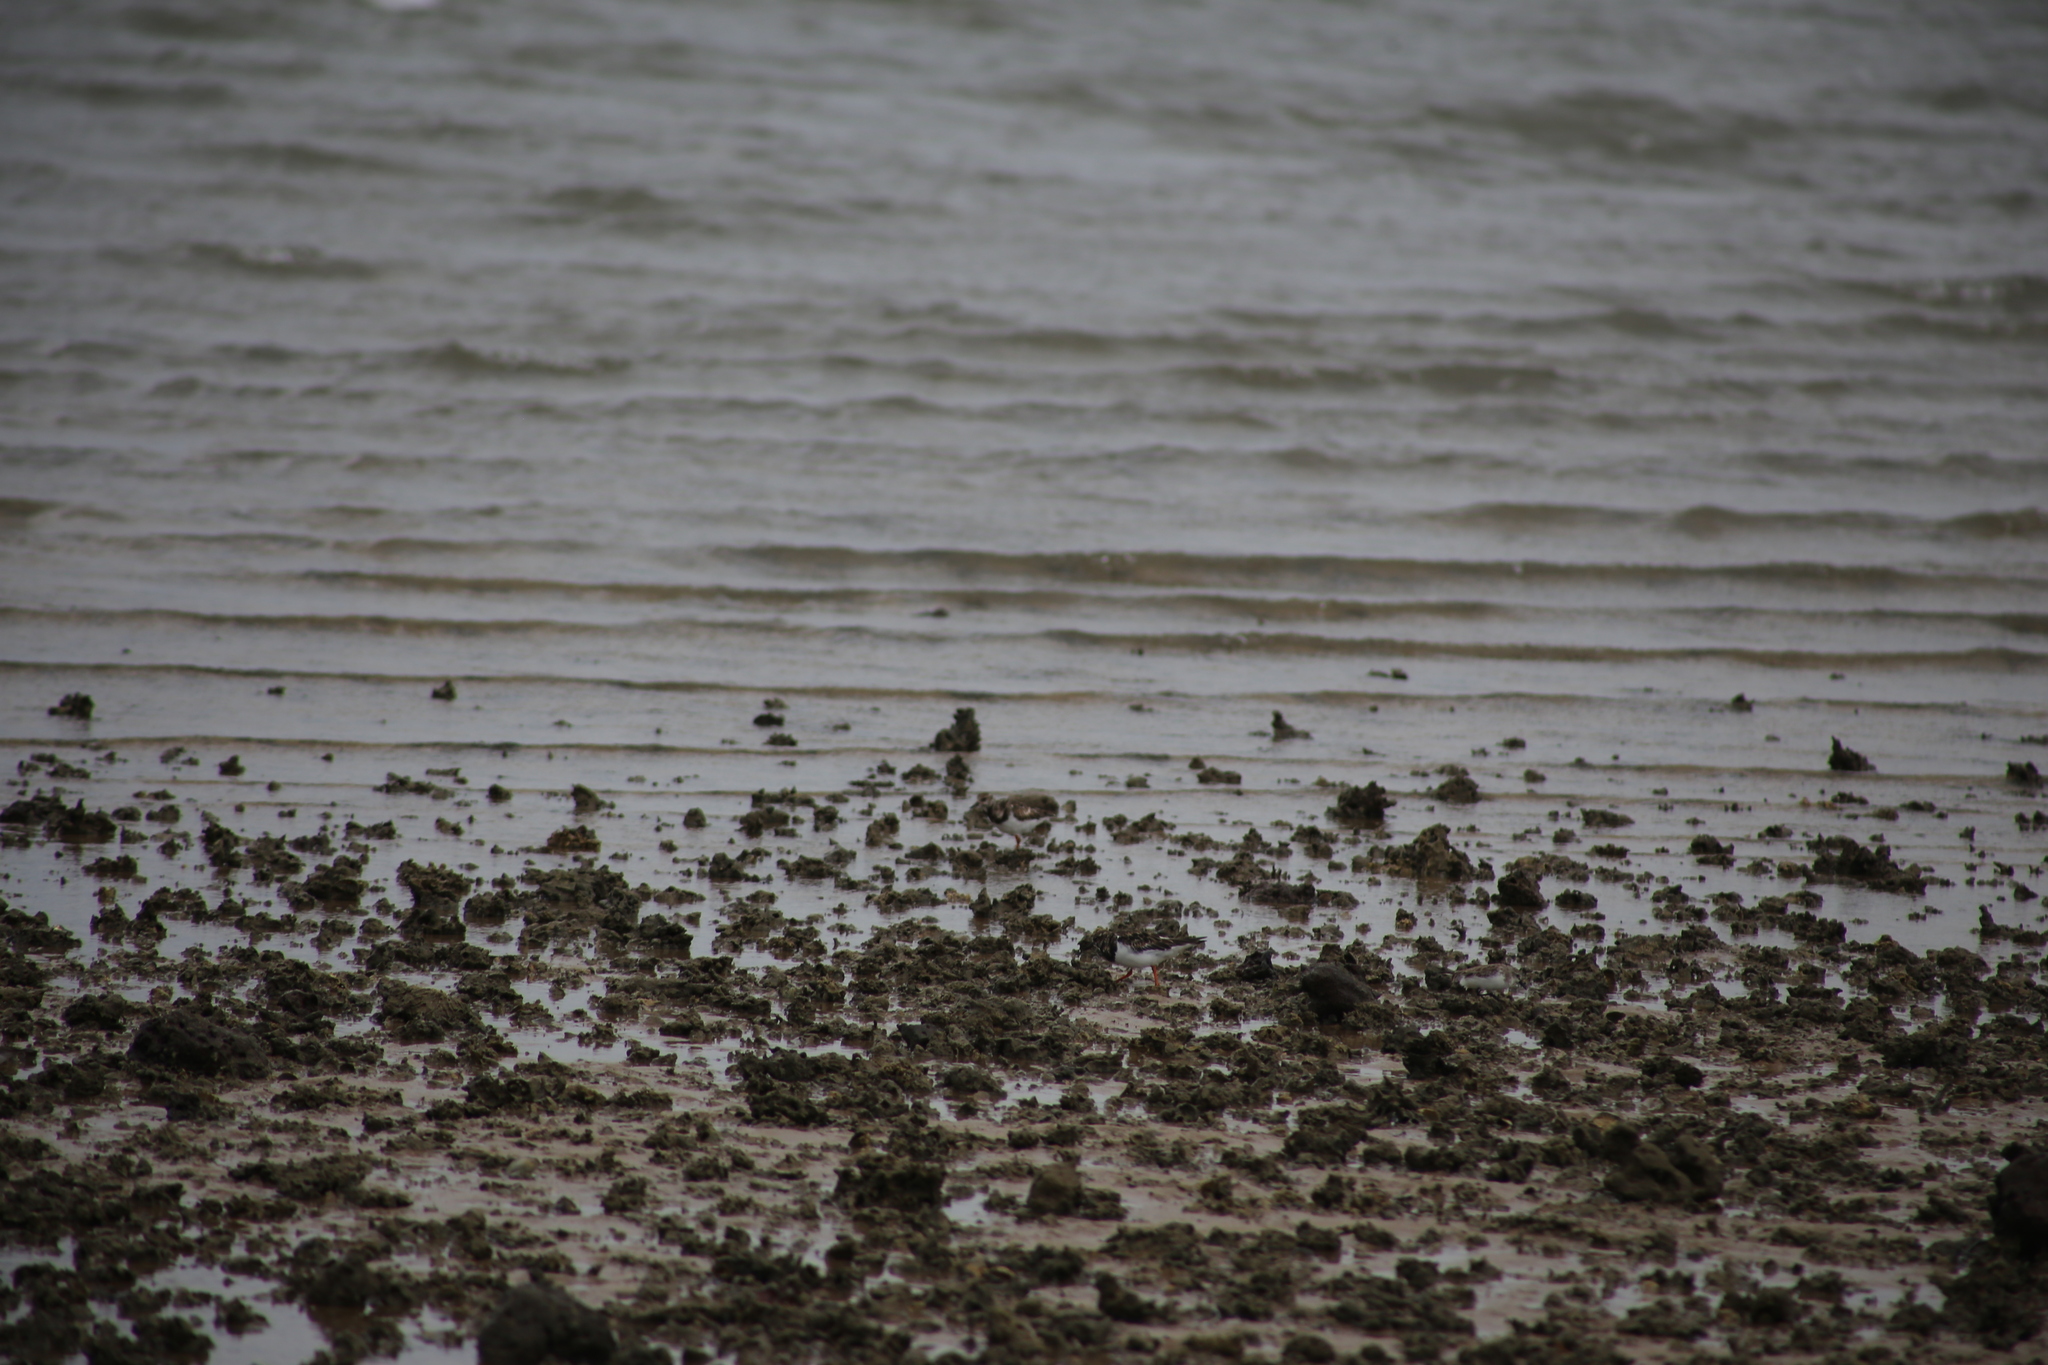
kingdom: Animalia
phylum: Chordata
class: Aves
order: Charadriiformes
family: Scolopacidae
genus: Calidris
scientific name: Calidris ruficollis
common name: Red-necked stint
